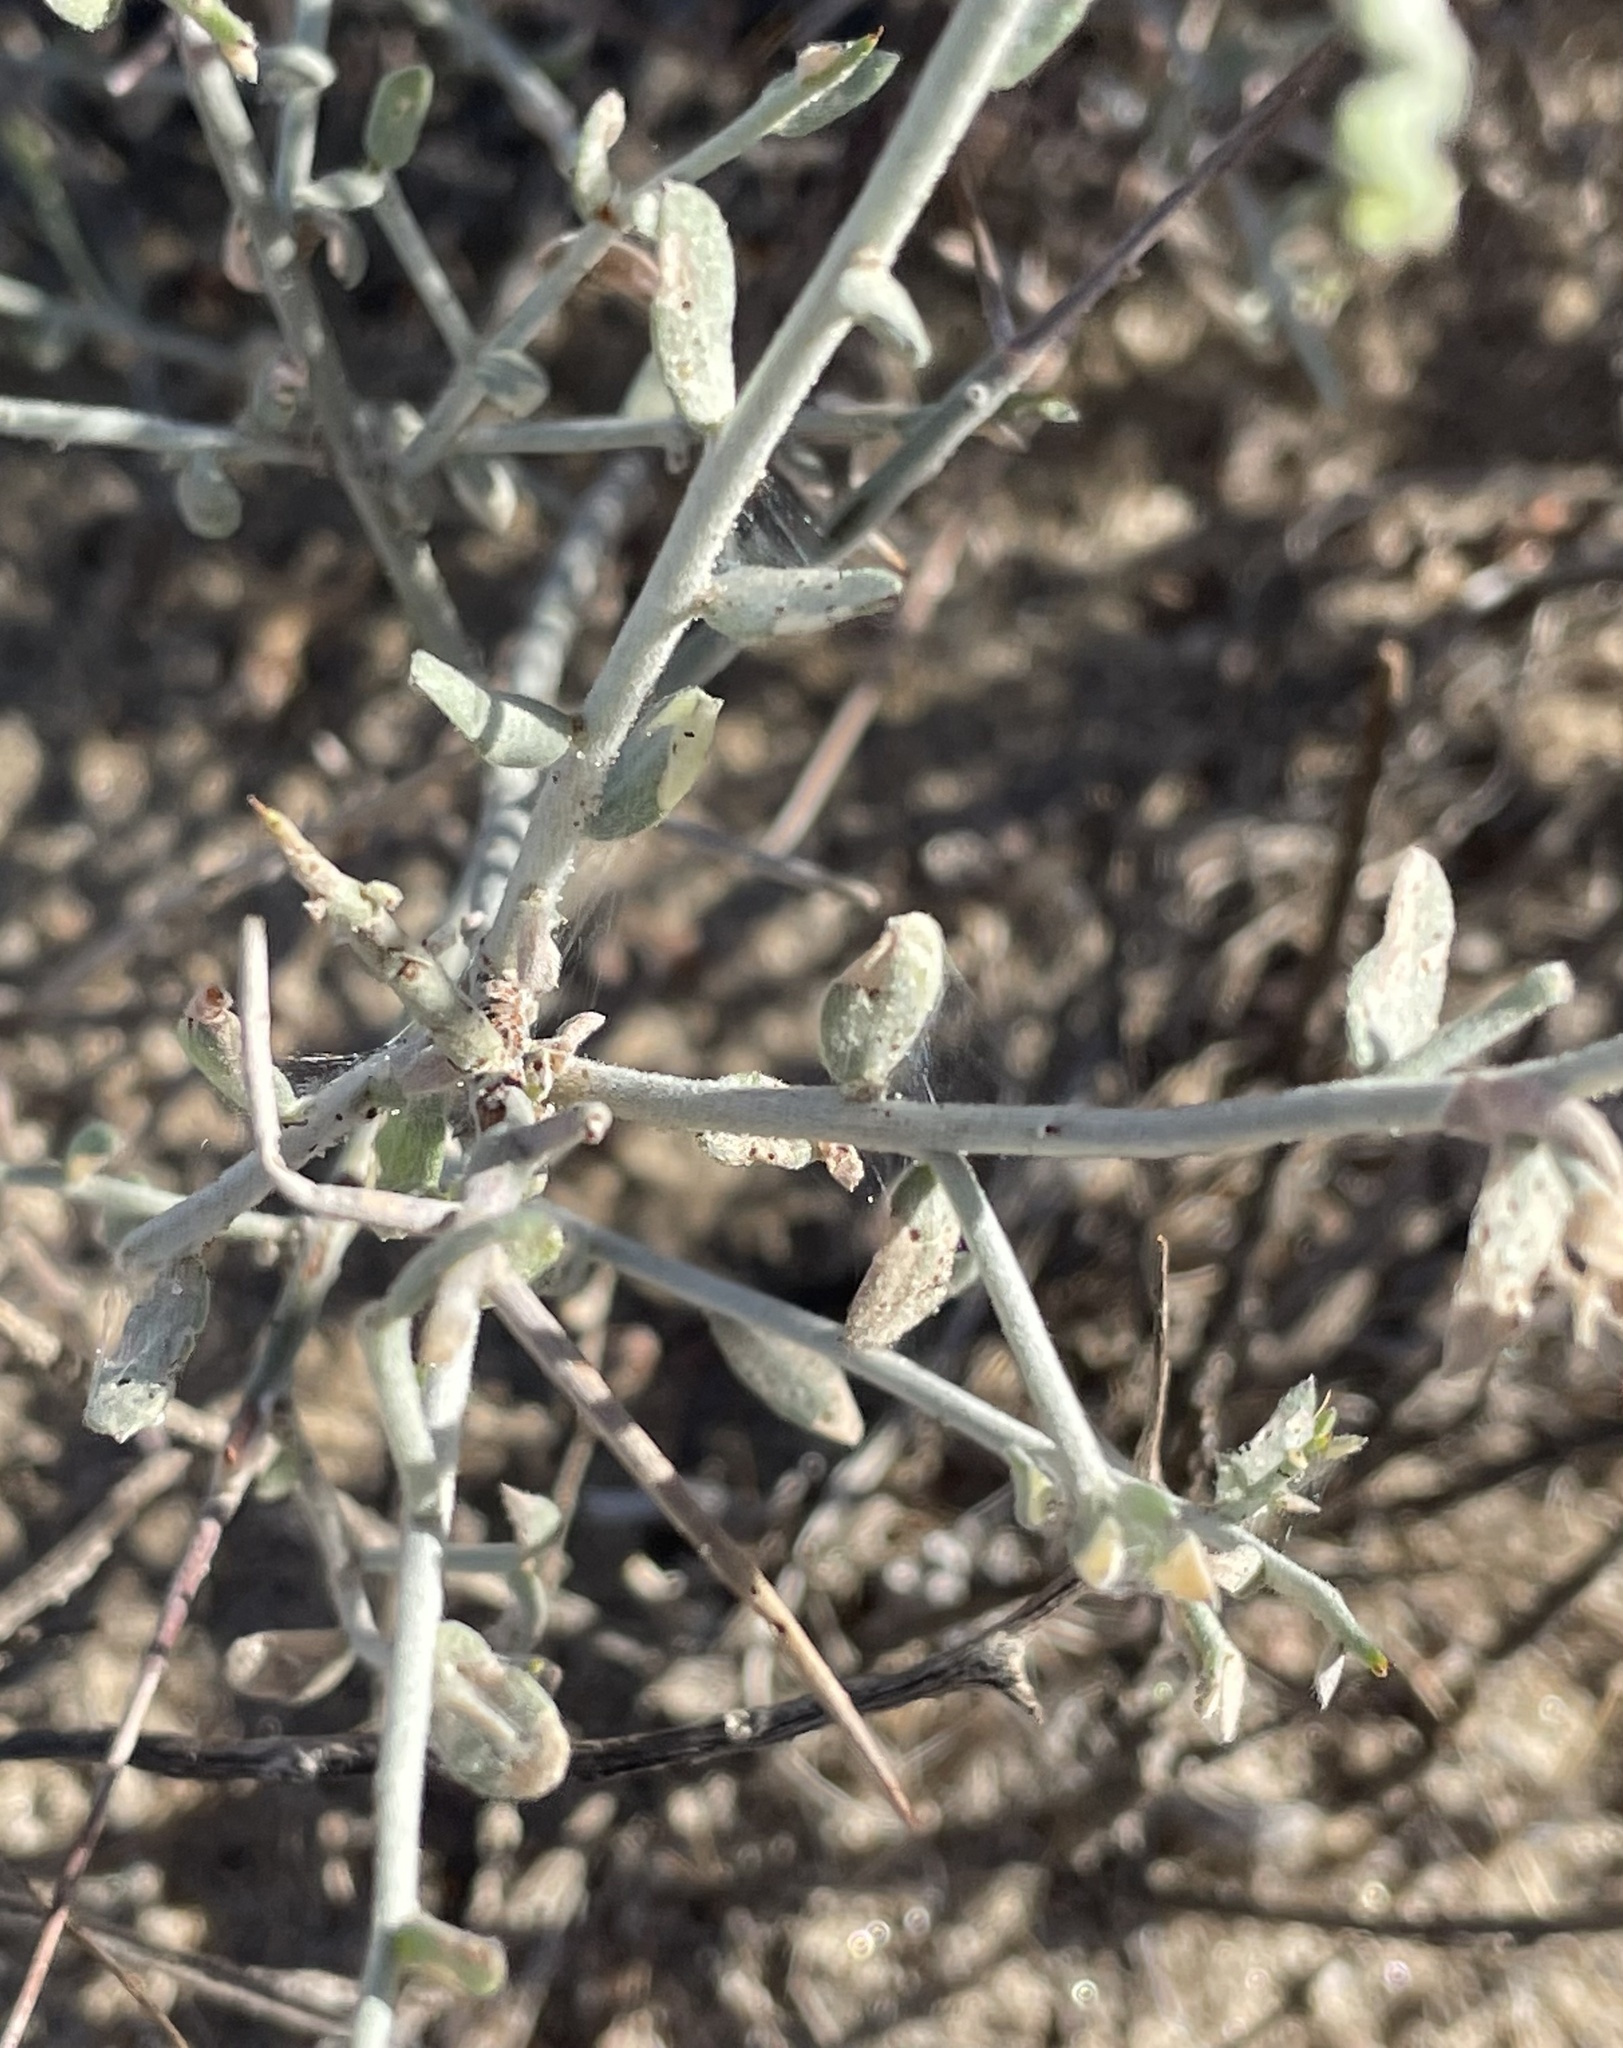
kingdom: Plantae
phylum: Tracheophyta
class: Magnoliopsida
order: Zygophyllales
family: Krameriaceae
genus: Krameria
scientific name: Krameria bicolor
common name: White ratany
